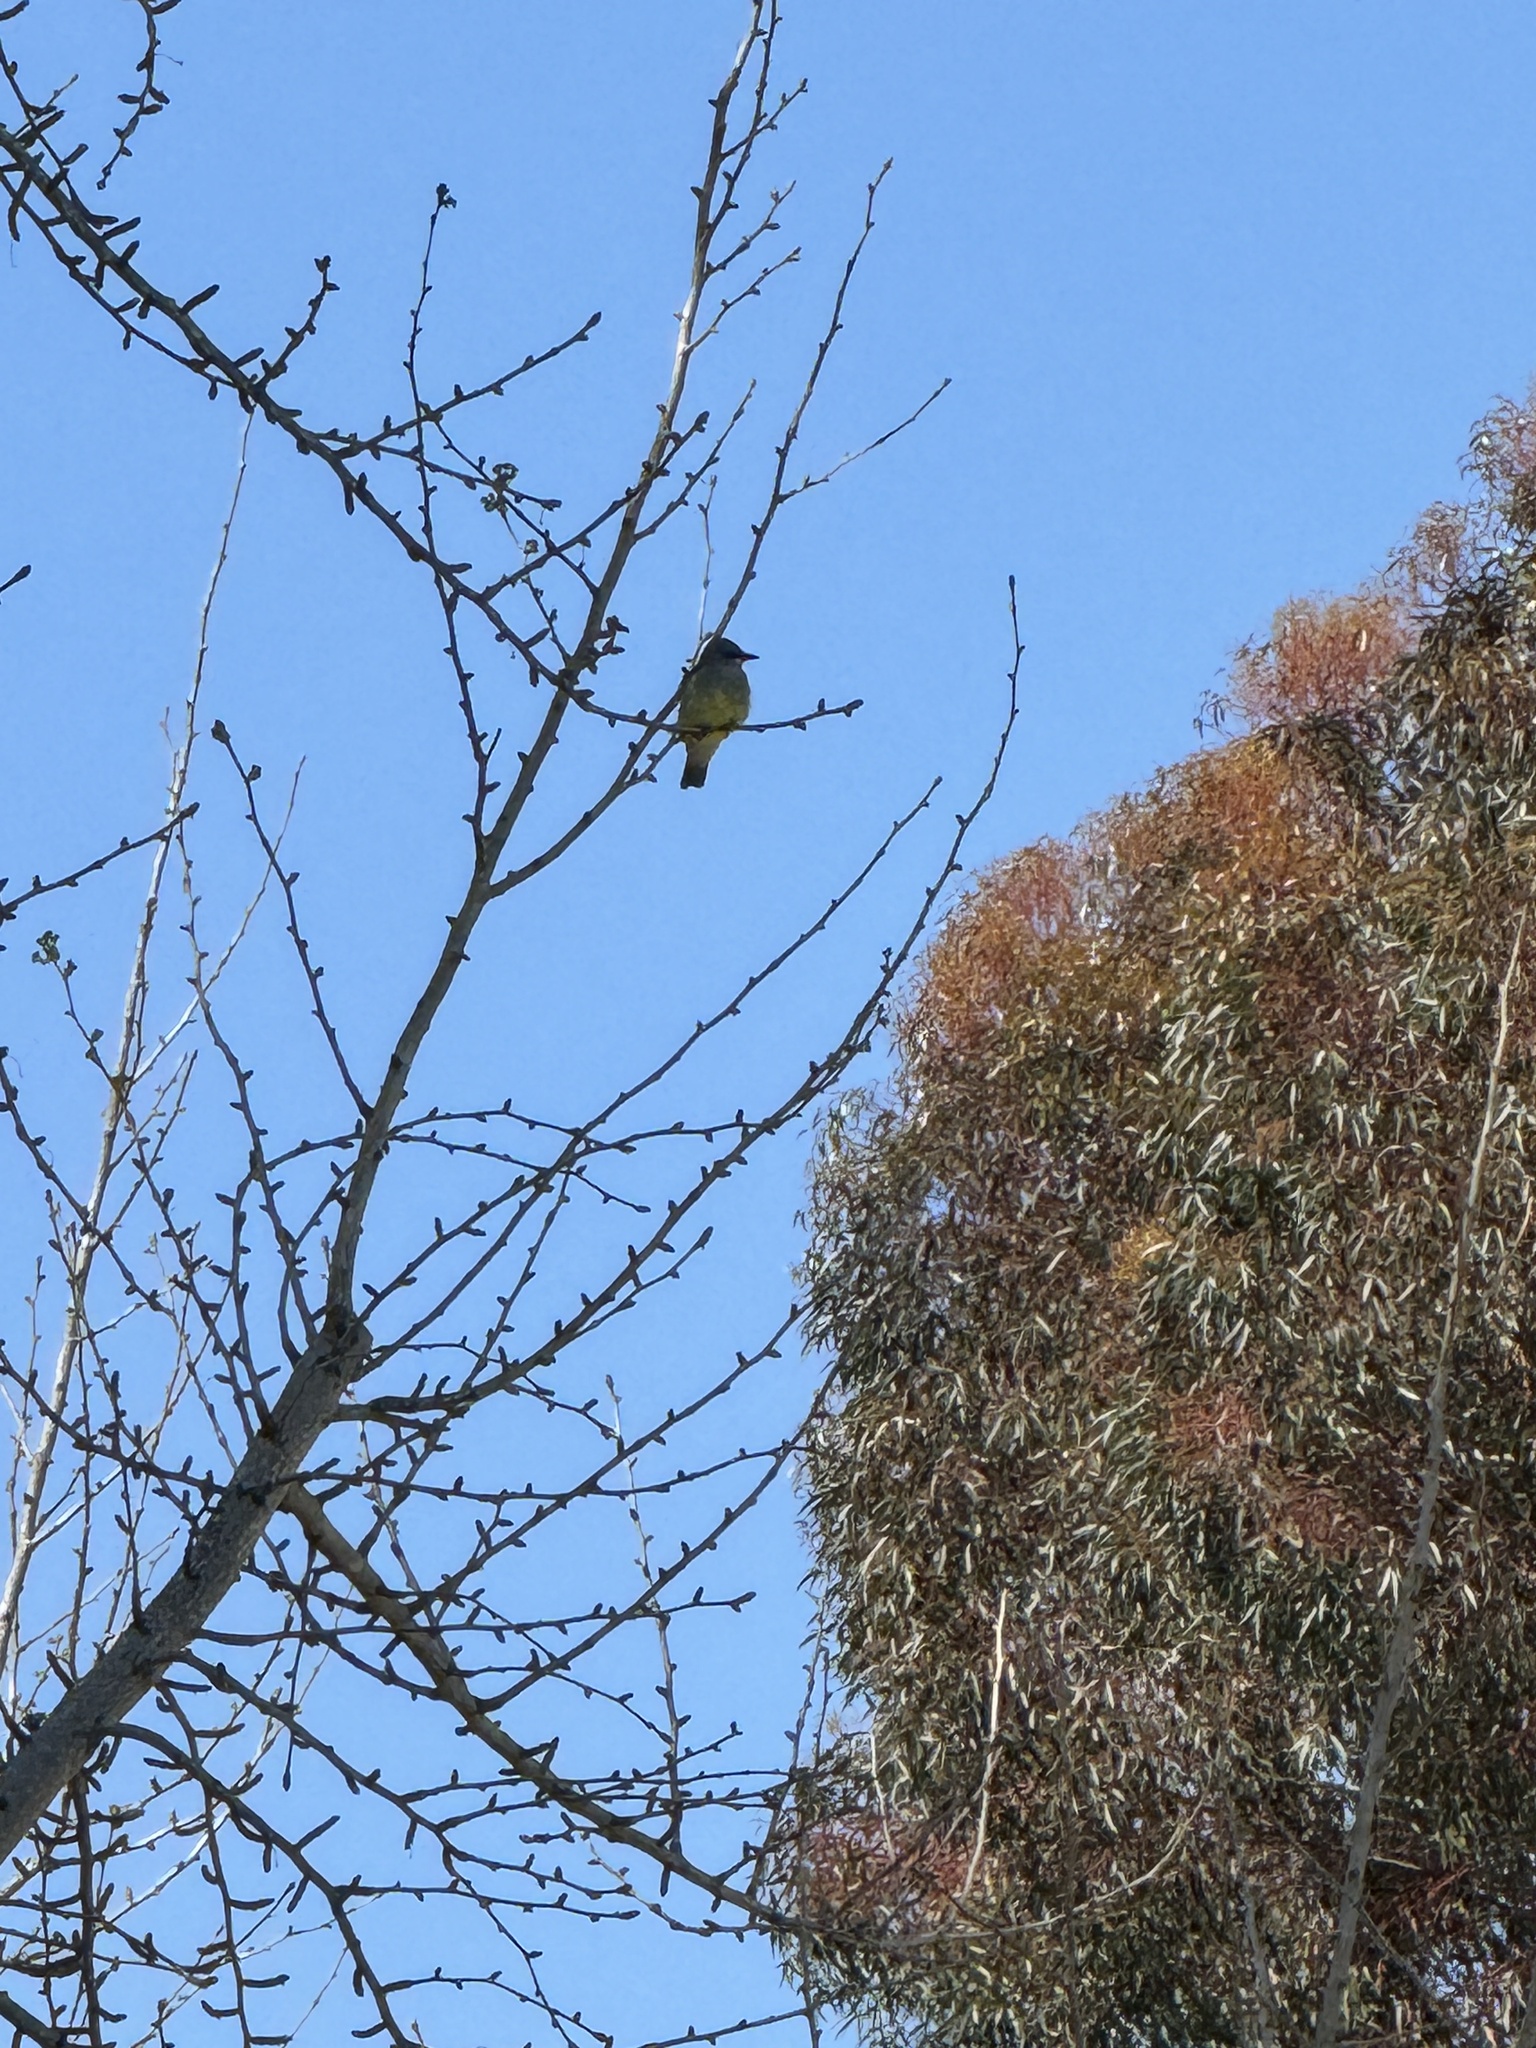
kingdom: Animalia
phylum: Chordata
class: Aves
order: Passeriformes
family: Tyrannidae
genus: Tyrannus
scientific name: Tyrannus vociferans
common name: Cassin's kingbird
